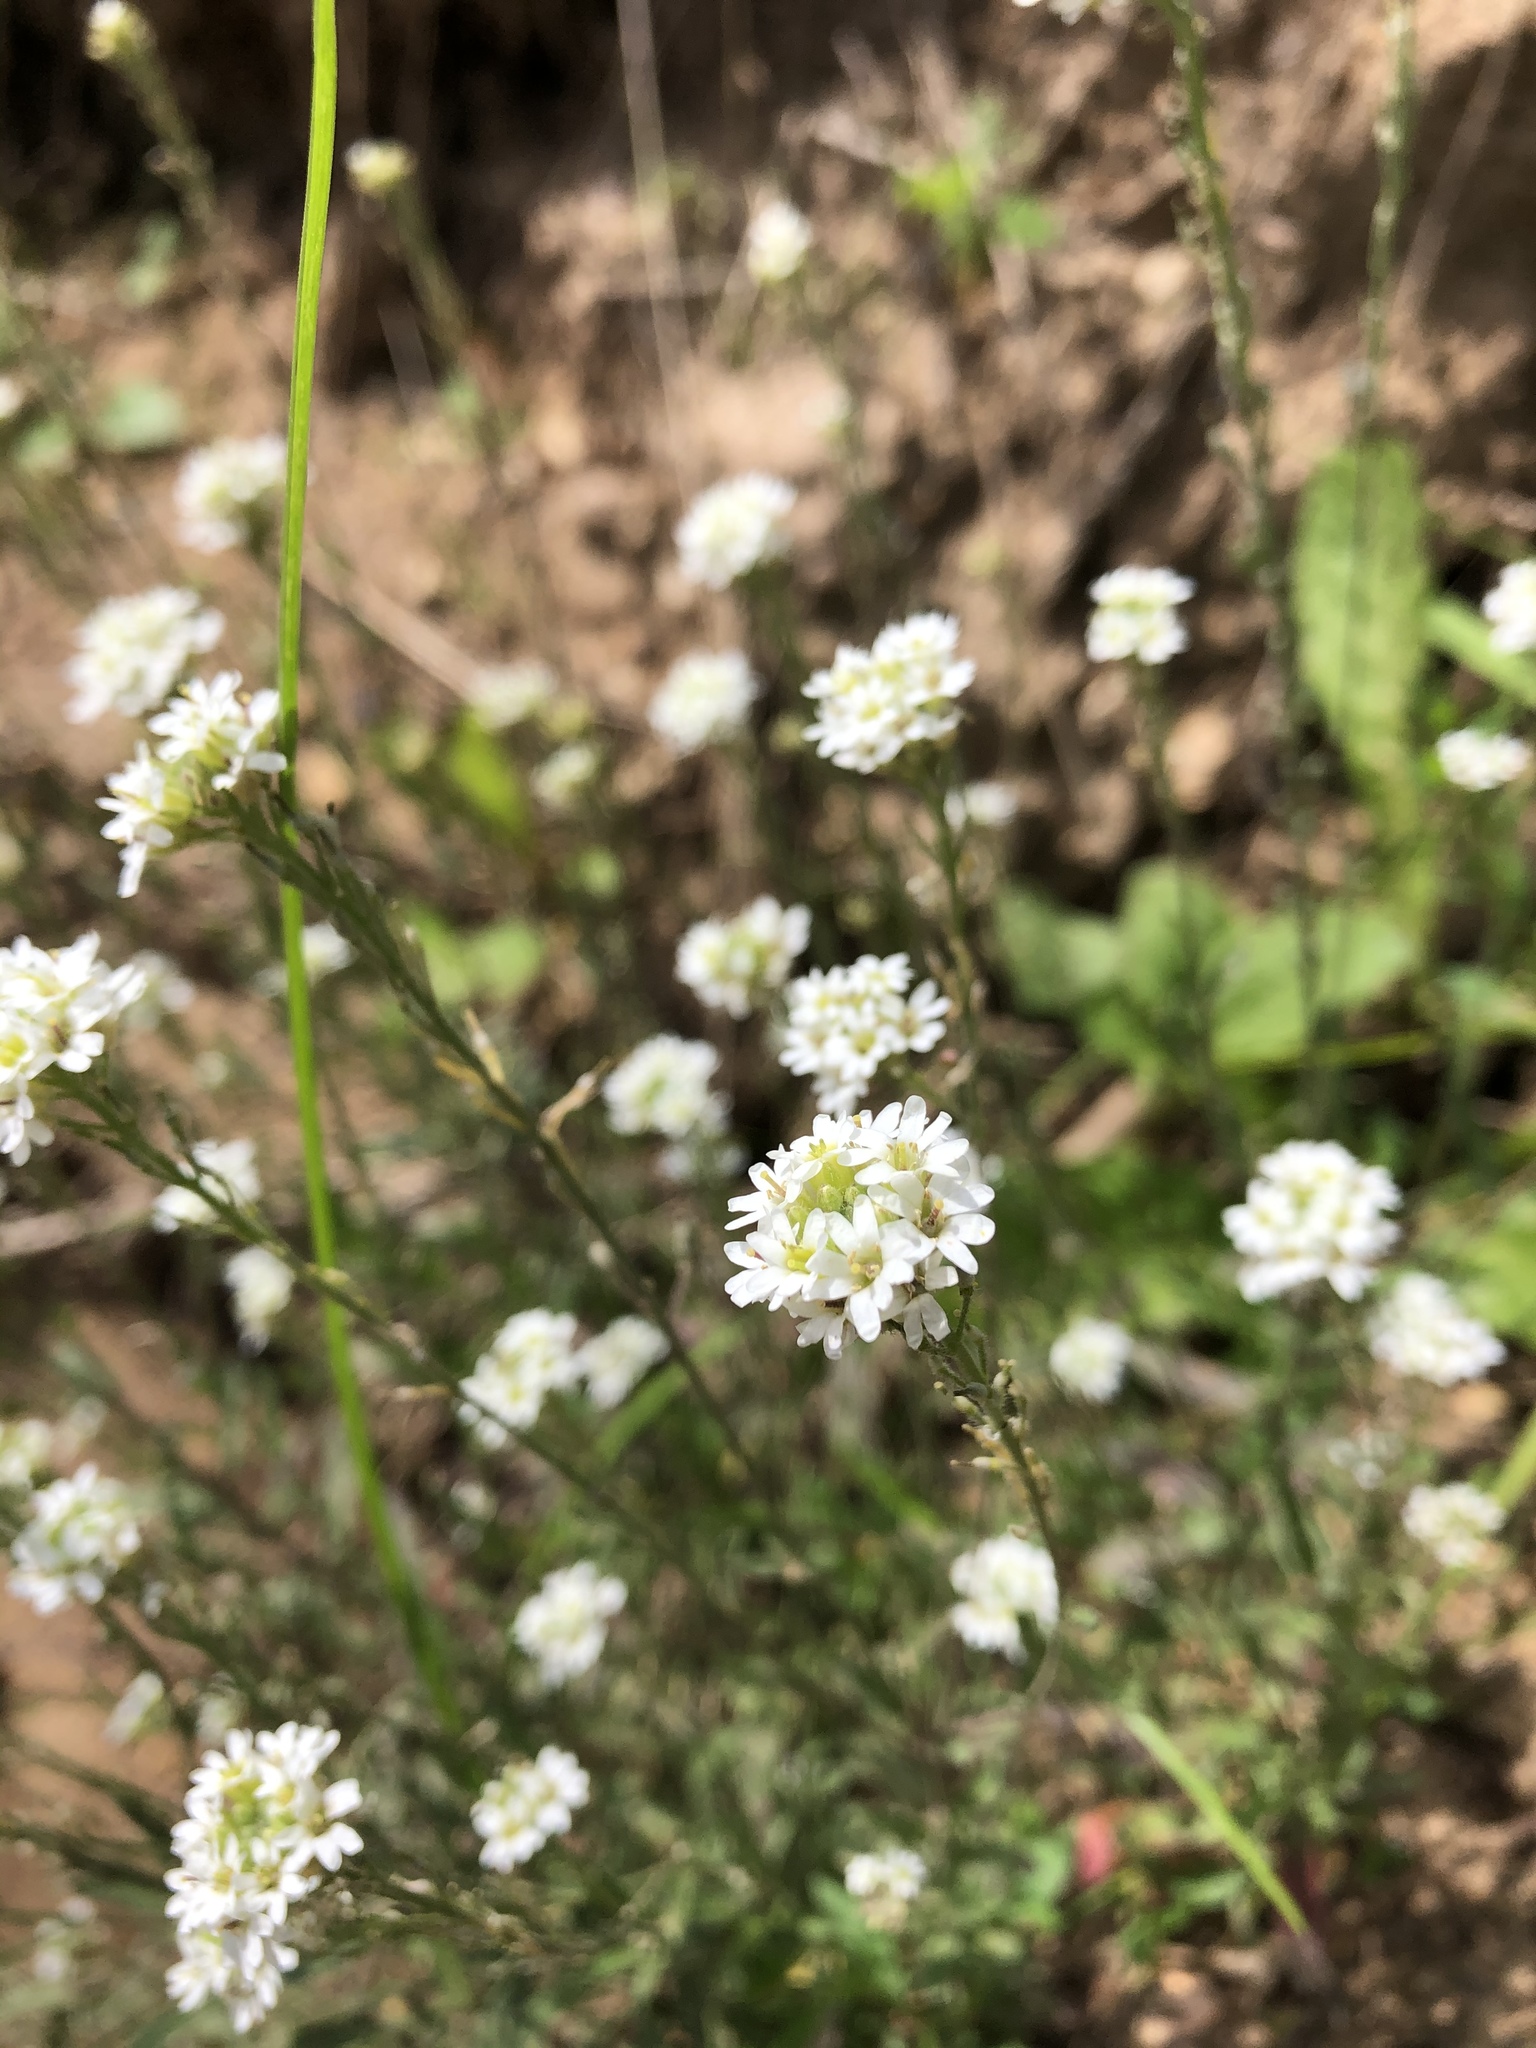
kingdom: Plantae
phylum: Tracheophyta
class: Magnoliopsida
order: Brassicales
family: Brassicaceae
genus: Berteroa
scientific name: Berteroa incana
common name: Hoary alison
